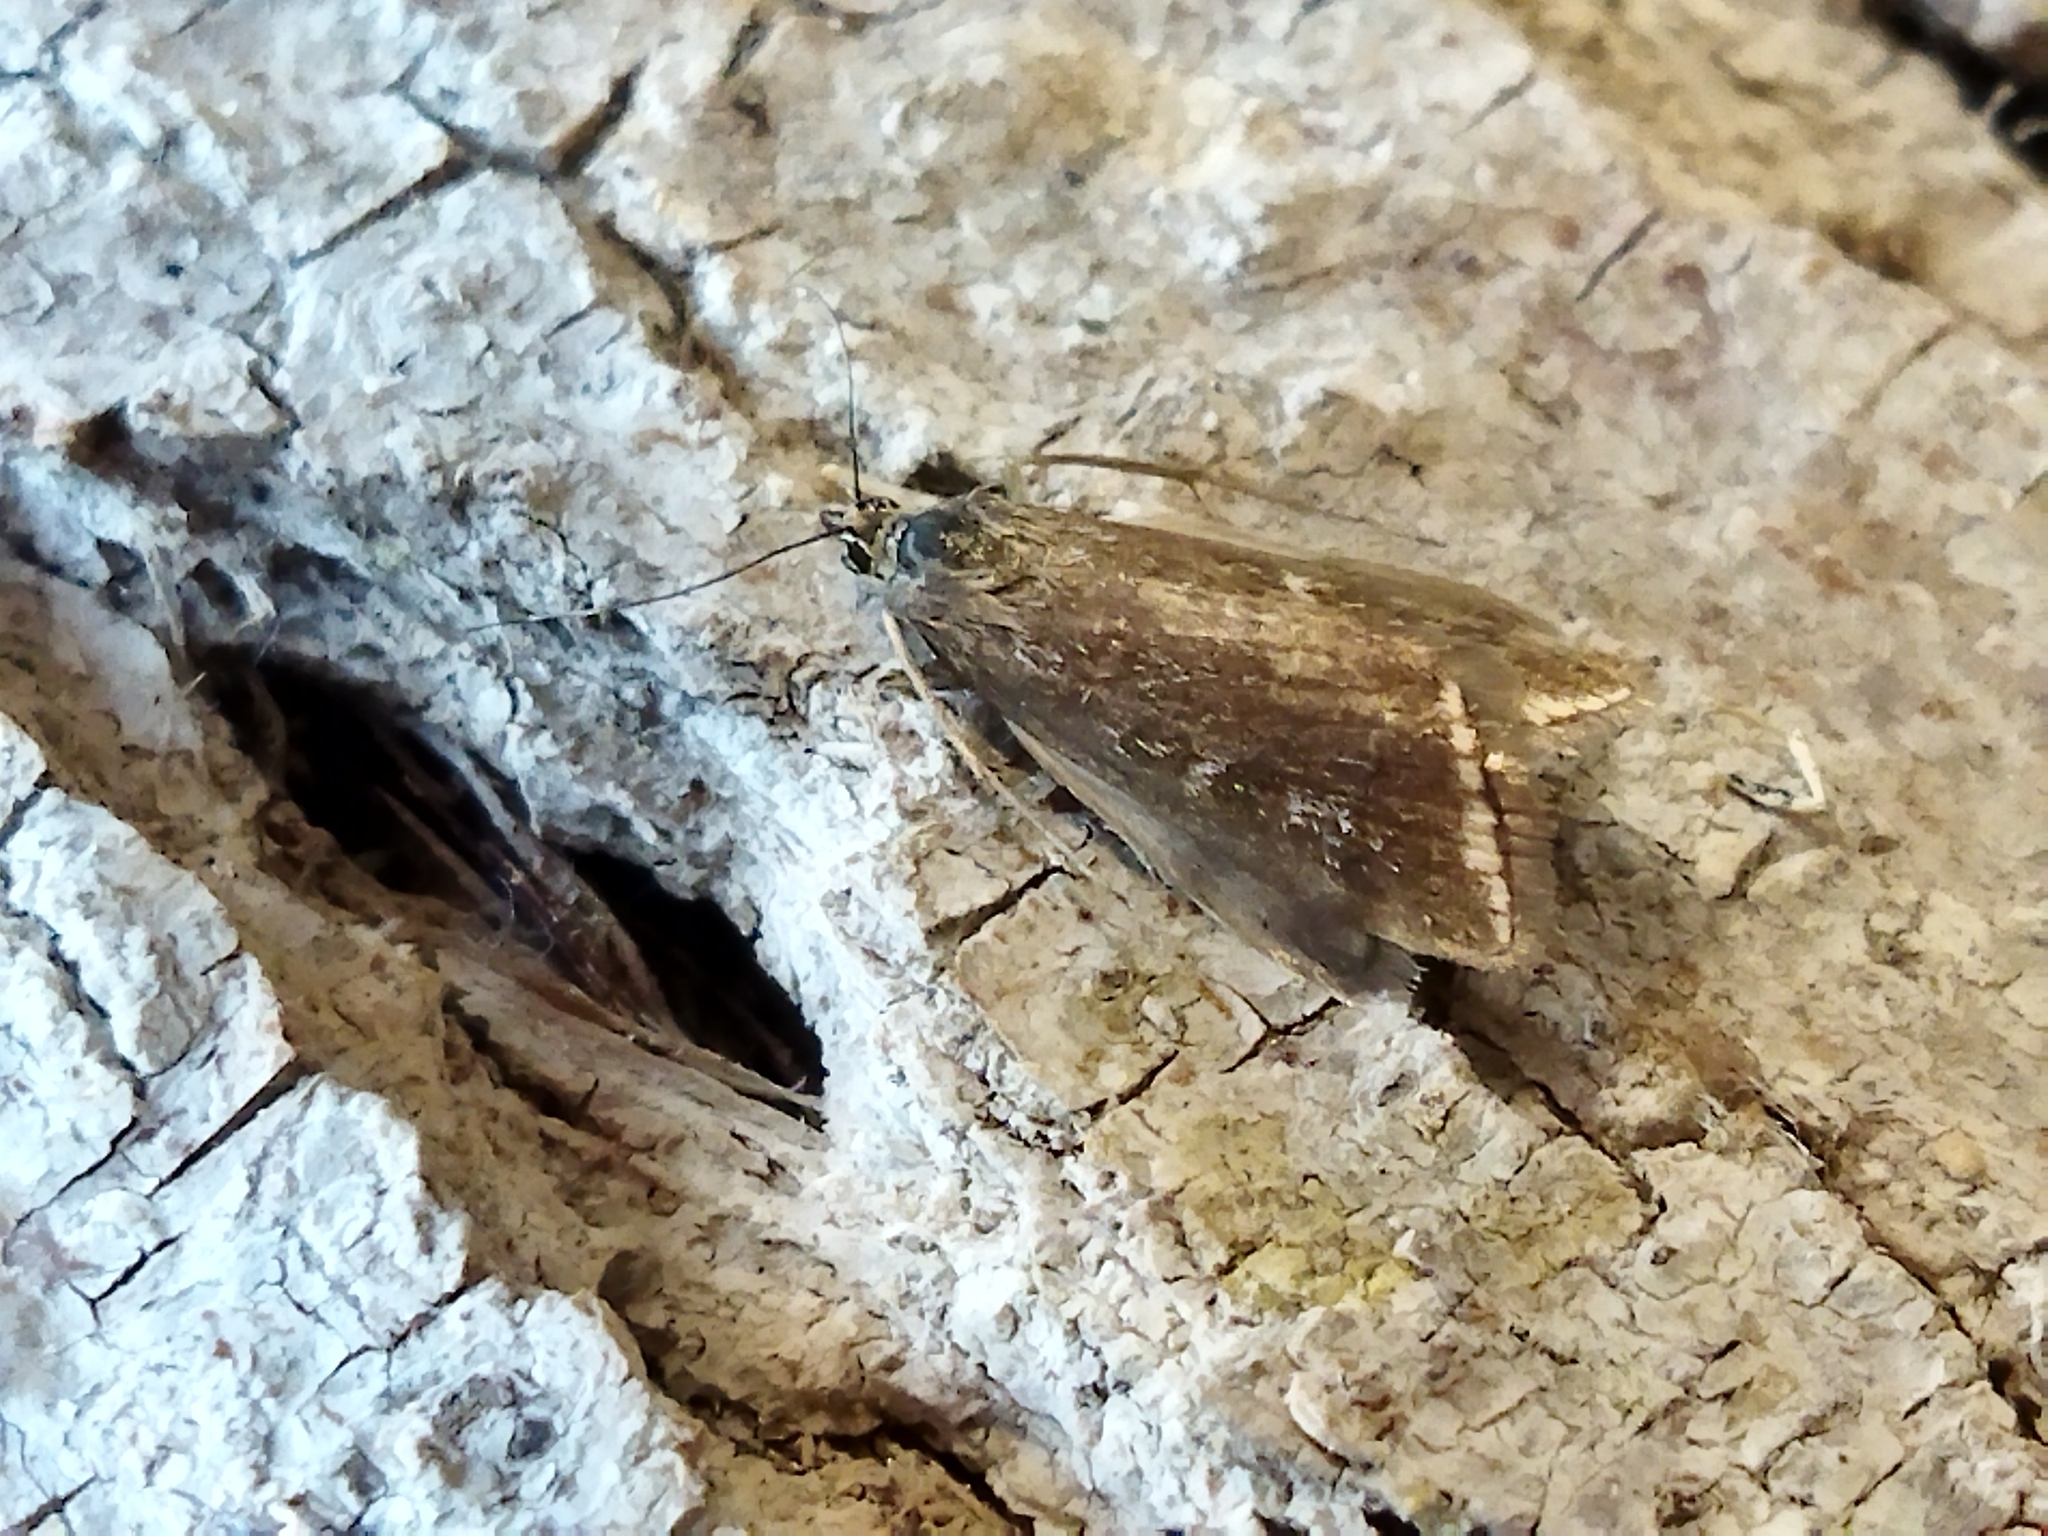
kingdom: Animalia
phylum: Arthropoda
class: Insecta
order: Lepidoptera
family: Crambidae
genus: Loxostege
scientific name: Loxostege sticticalis
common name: Crambid moth
